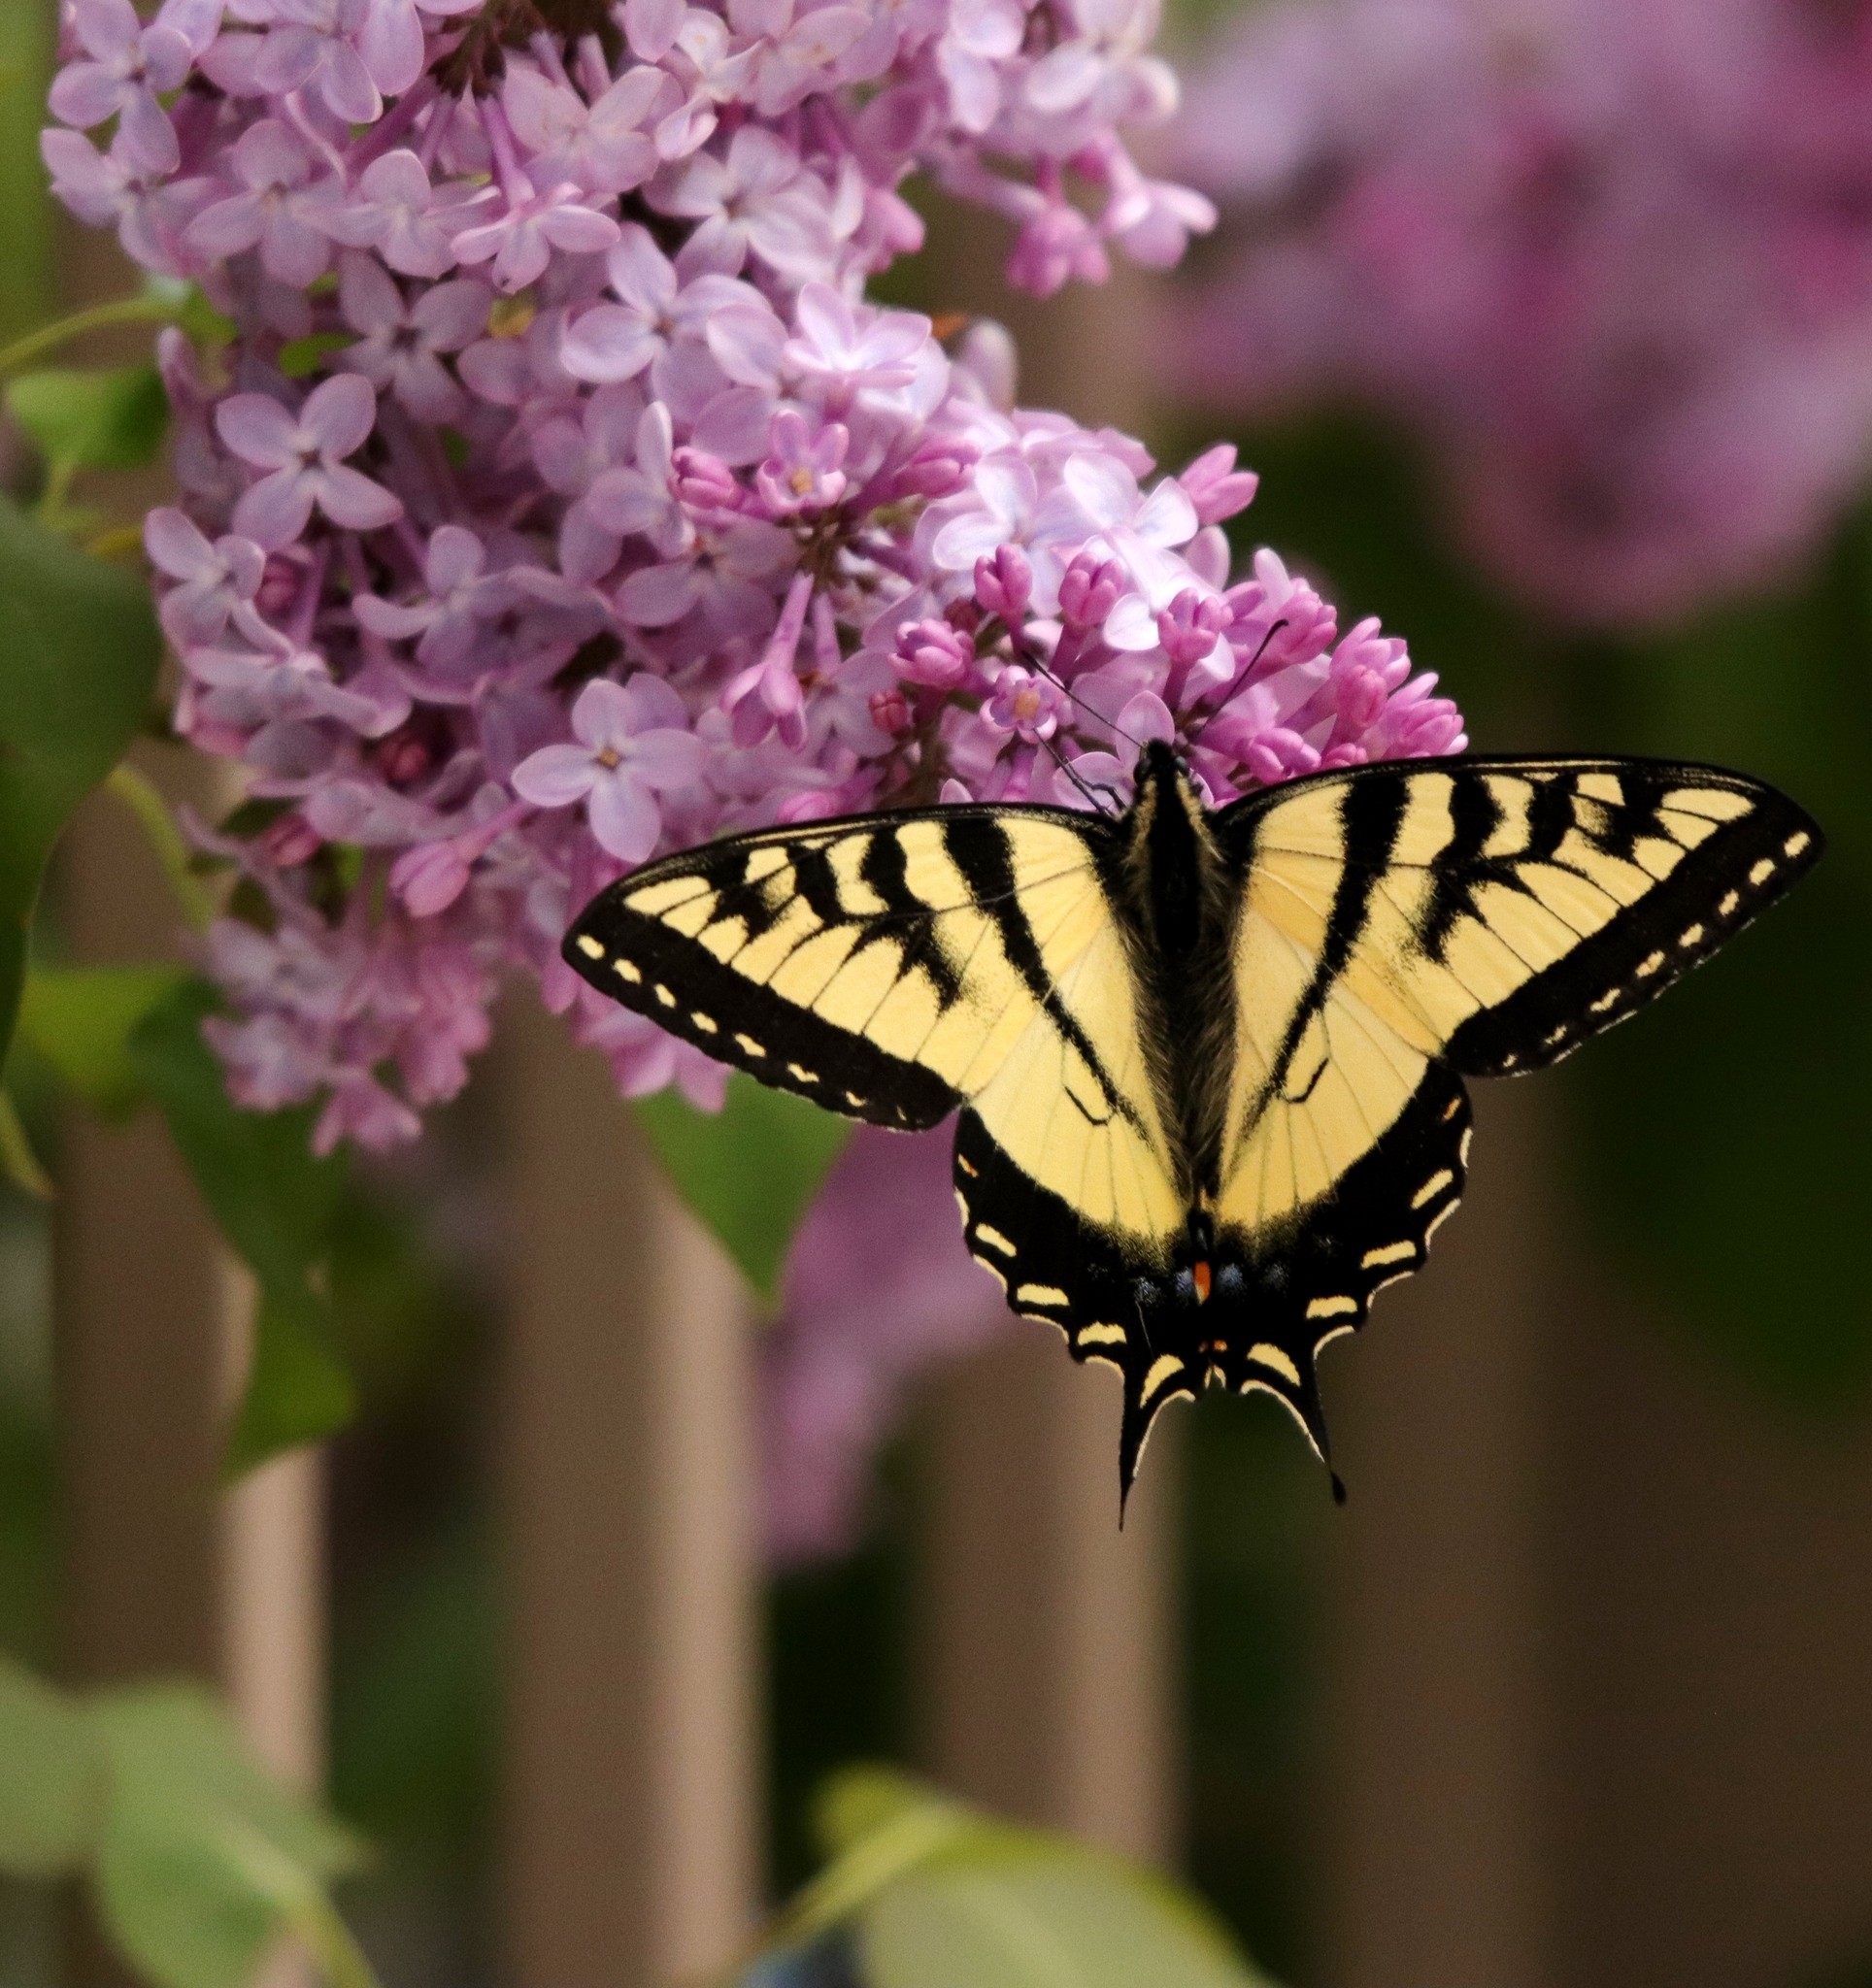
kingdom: Animalia
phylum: Arthropoda
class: Insecta
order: Lepidoptera
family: Papilionidae
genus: Papilio
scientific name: Papilio canadensis
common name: Canadian tiger swallowtail
